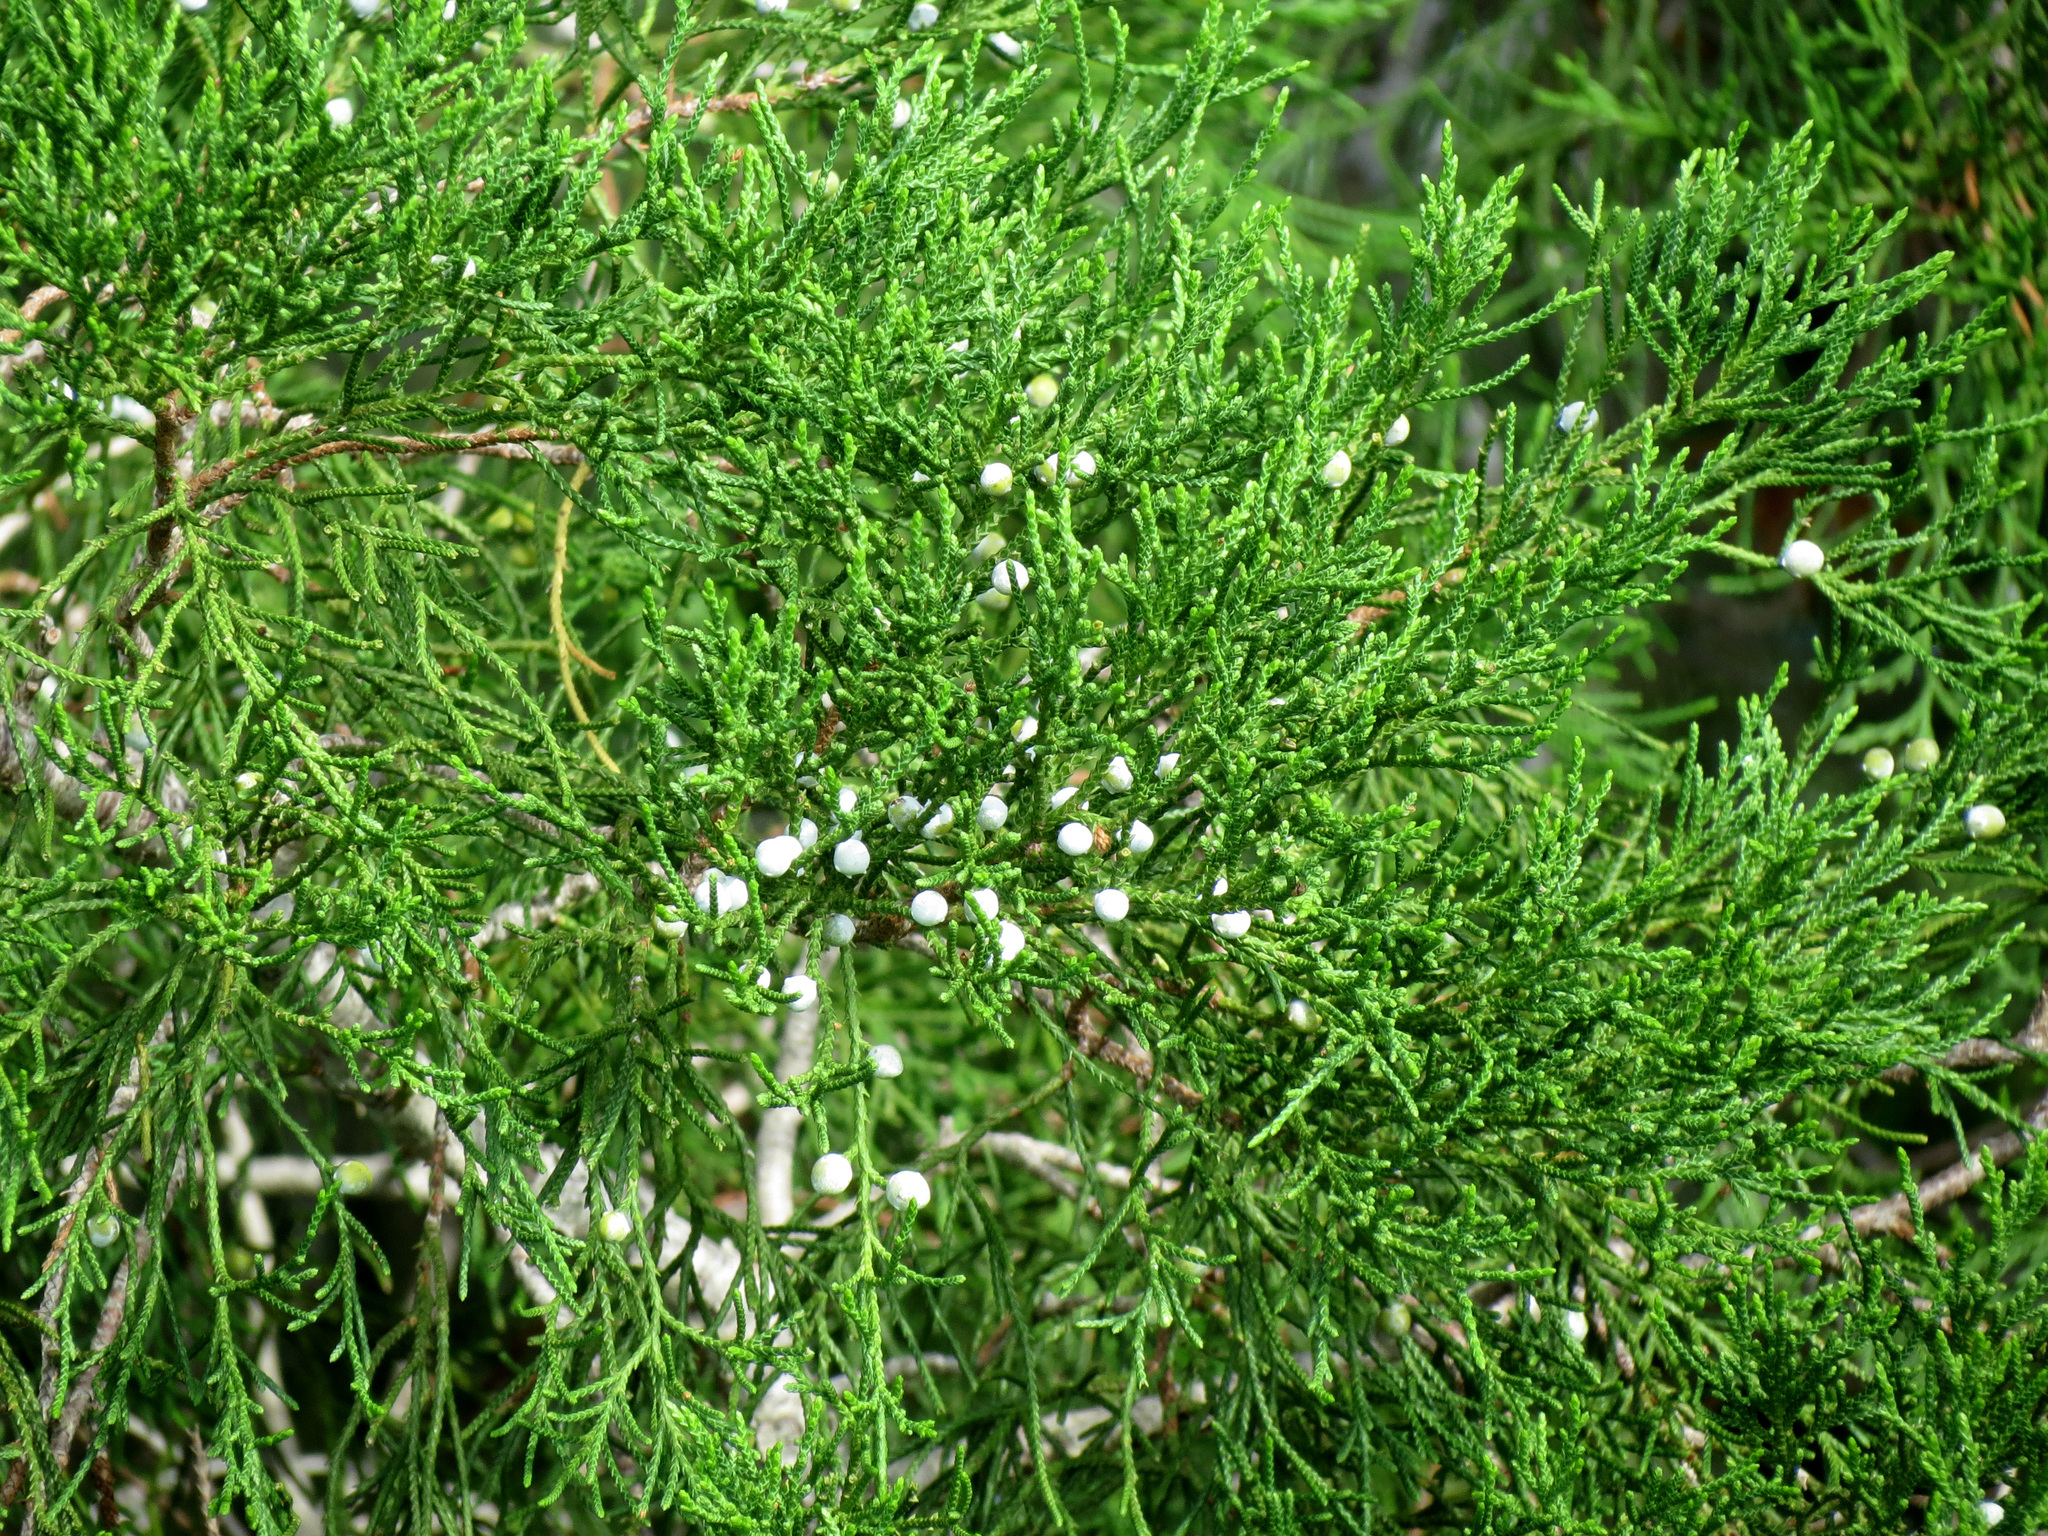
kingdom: Plantae
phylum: Tracheophyta
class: Pinopsida
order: Pinales
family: Cupressaceae
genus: Juniperus
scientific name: Juniperus virginiana
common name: Red juniper
